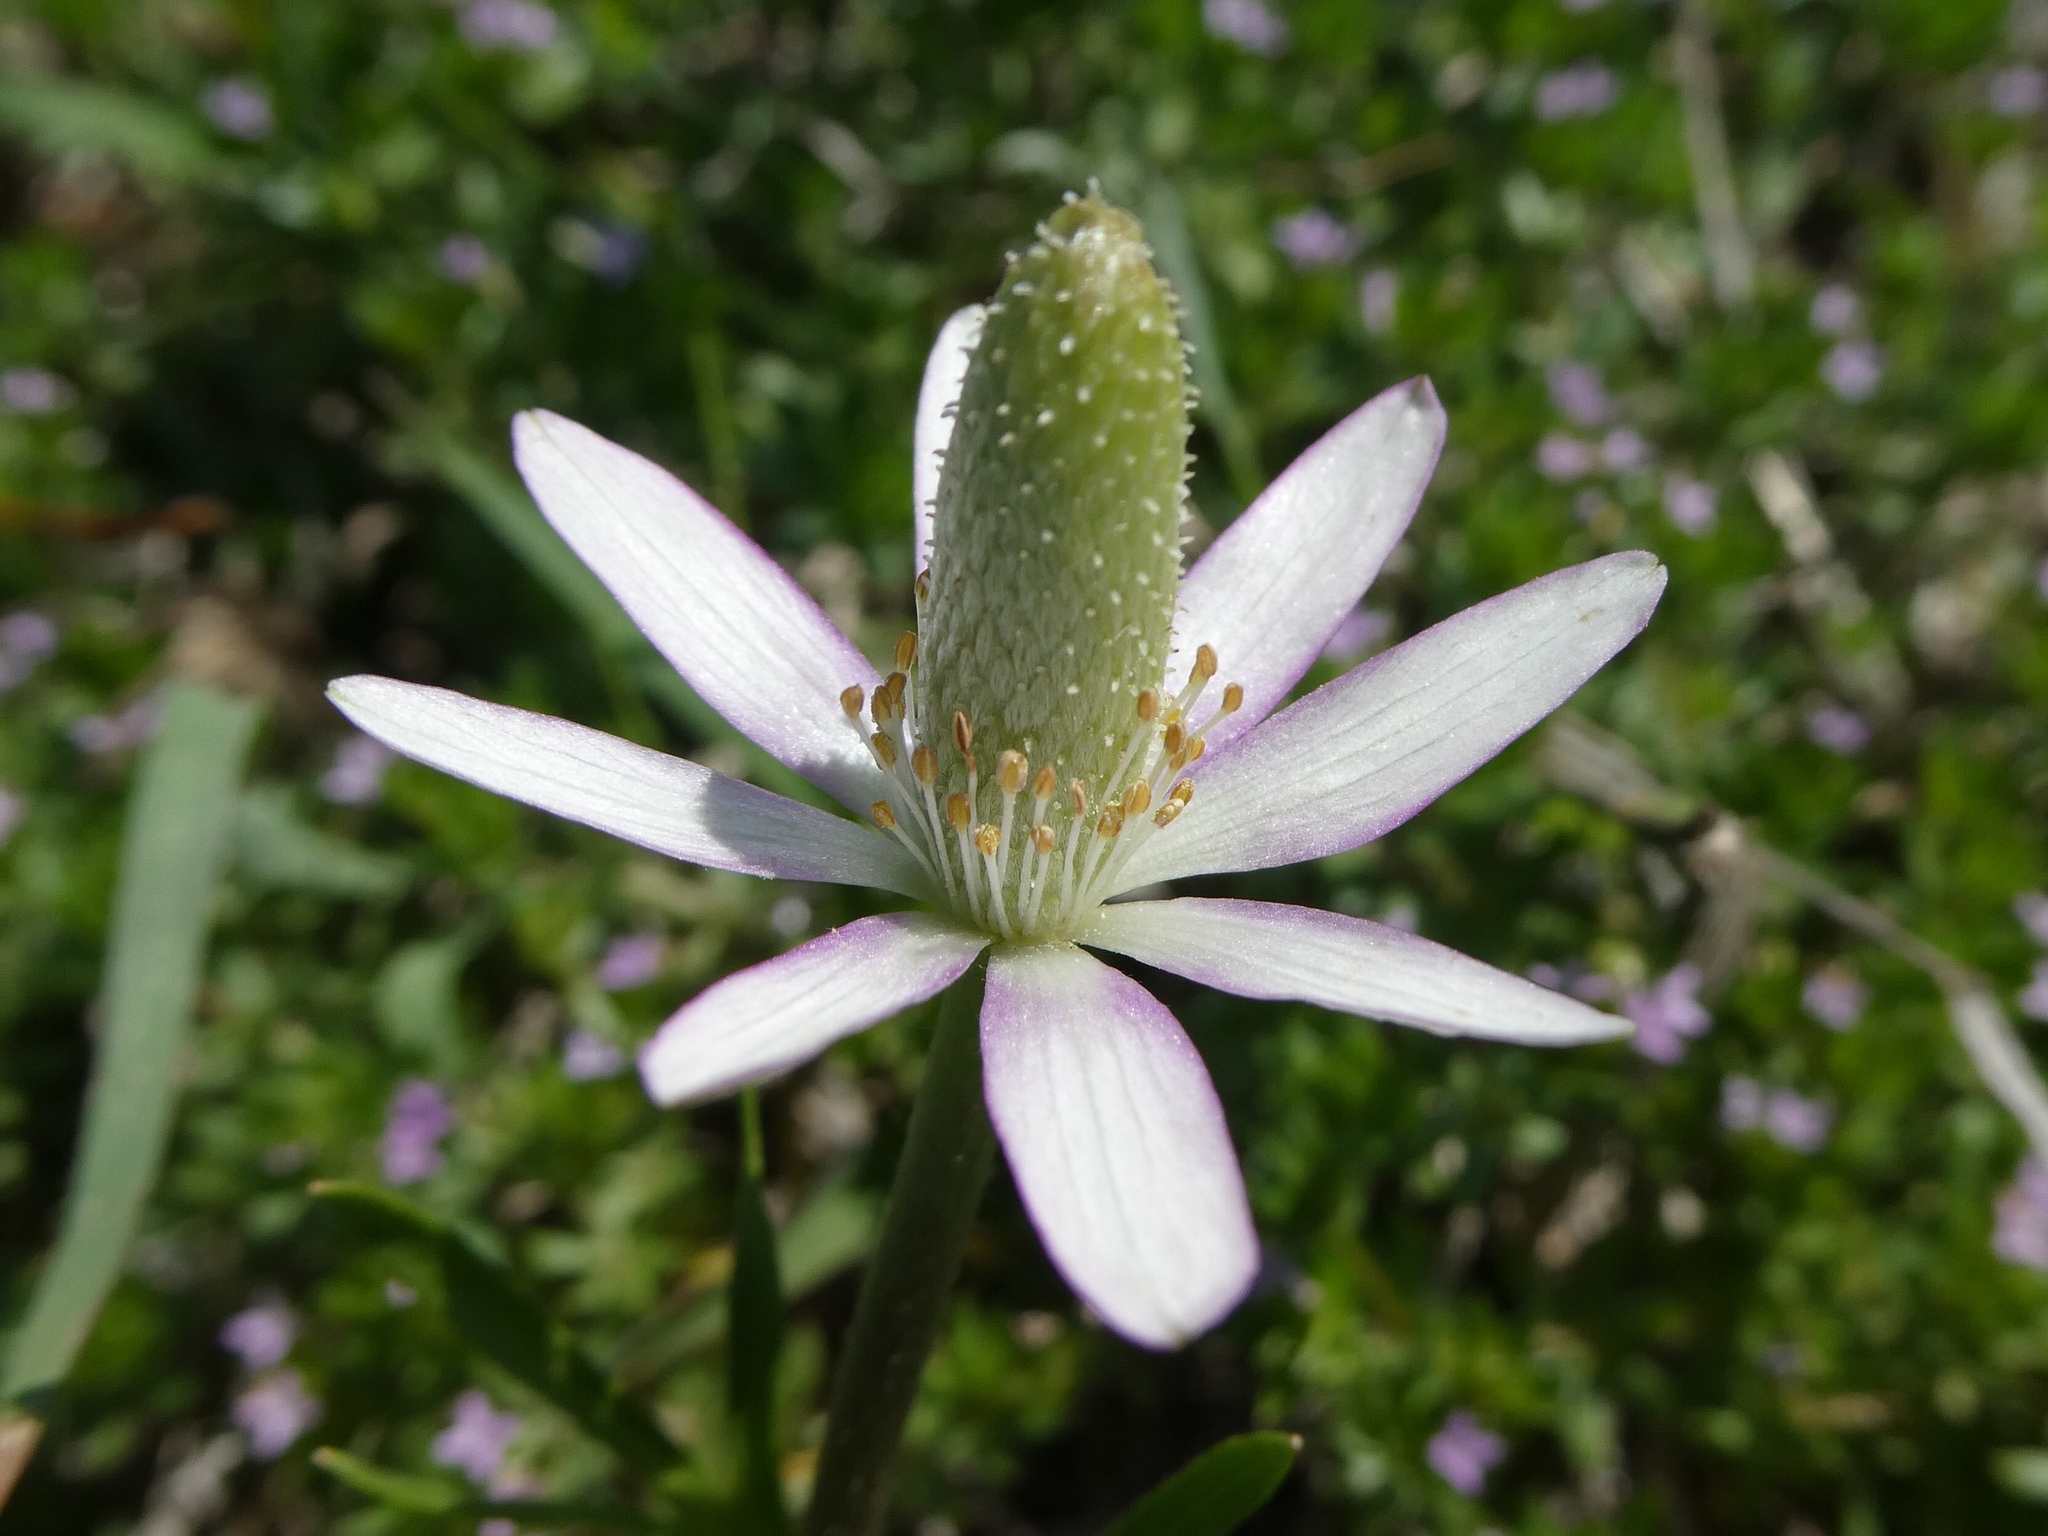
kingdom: Plantae
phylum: Tracheophyta
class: Magnoliopsida
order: Ranunculales
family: Ranunculaceae
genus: Anemone
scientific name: Anemone berlandieri
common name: Ten-petal anemone
